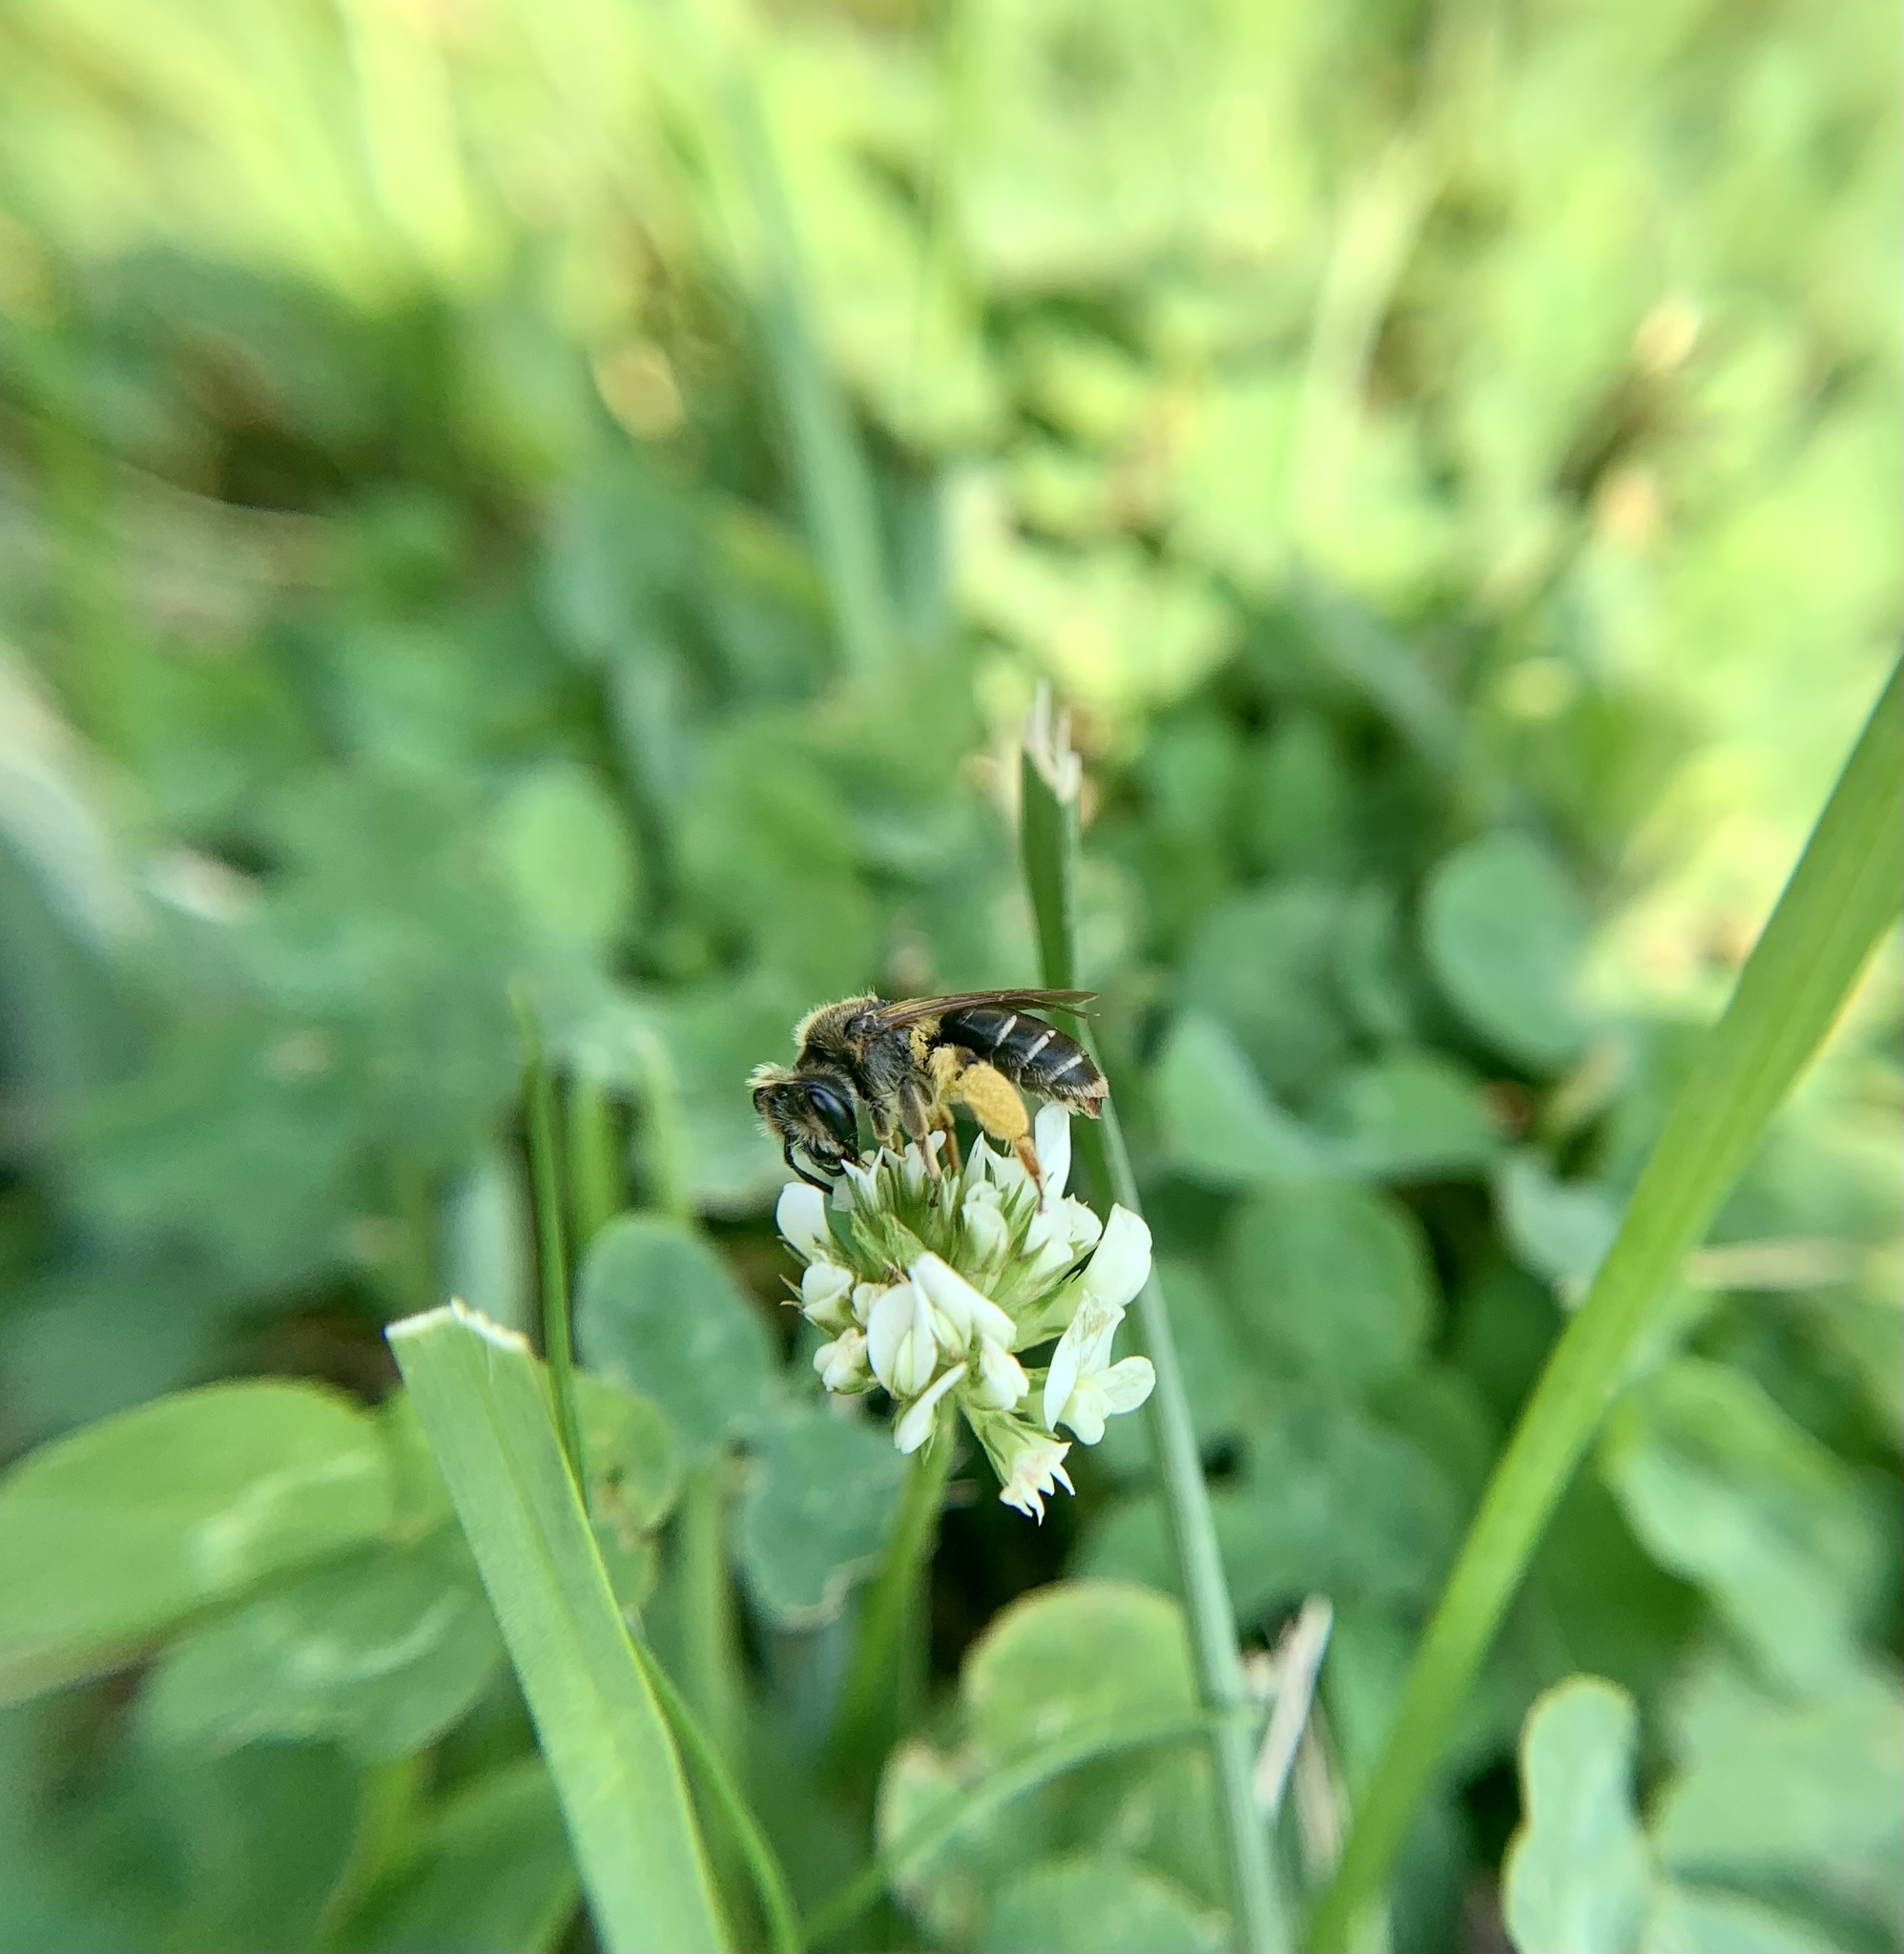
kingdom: Animalia
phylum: Arthropoda
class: Insecta
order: Hymenoptera
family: Andrenidae
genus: Andrena
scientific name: Andrena wilkella
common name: Wilke's mining bee
